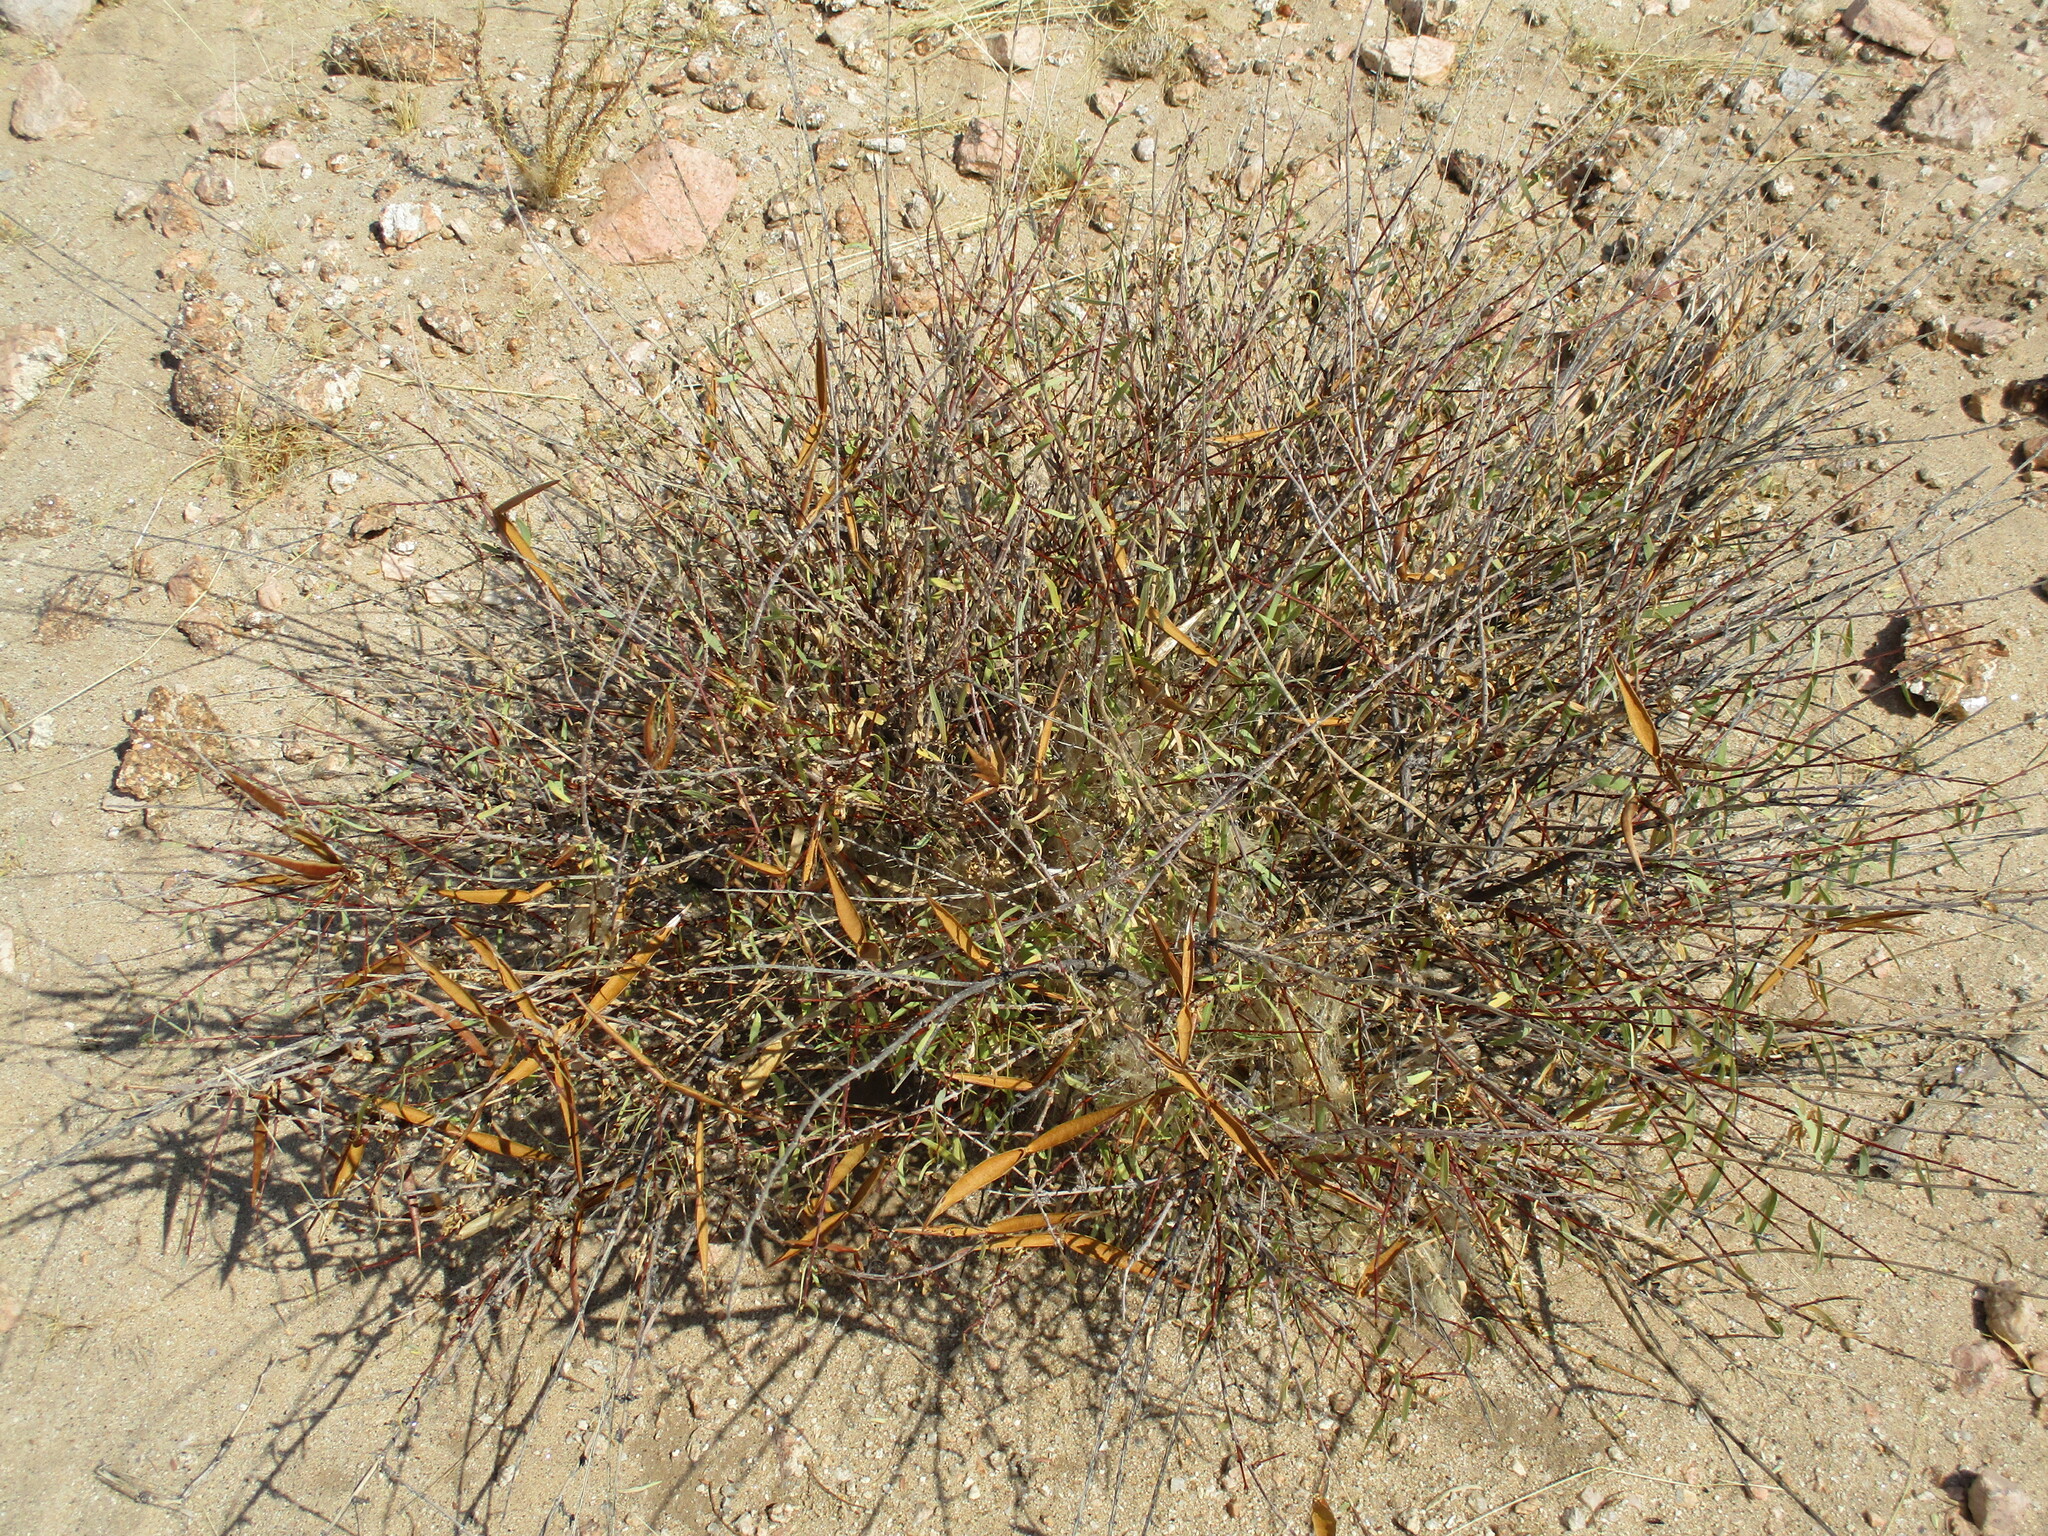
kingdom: Plantae
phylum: Tracheophyta
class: Magnoliopsida
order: Gentianales
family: Apocynaceae
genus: Cryptolepis
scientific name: Cryptolepis decidua
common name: Jackalplant
